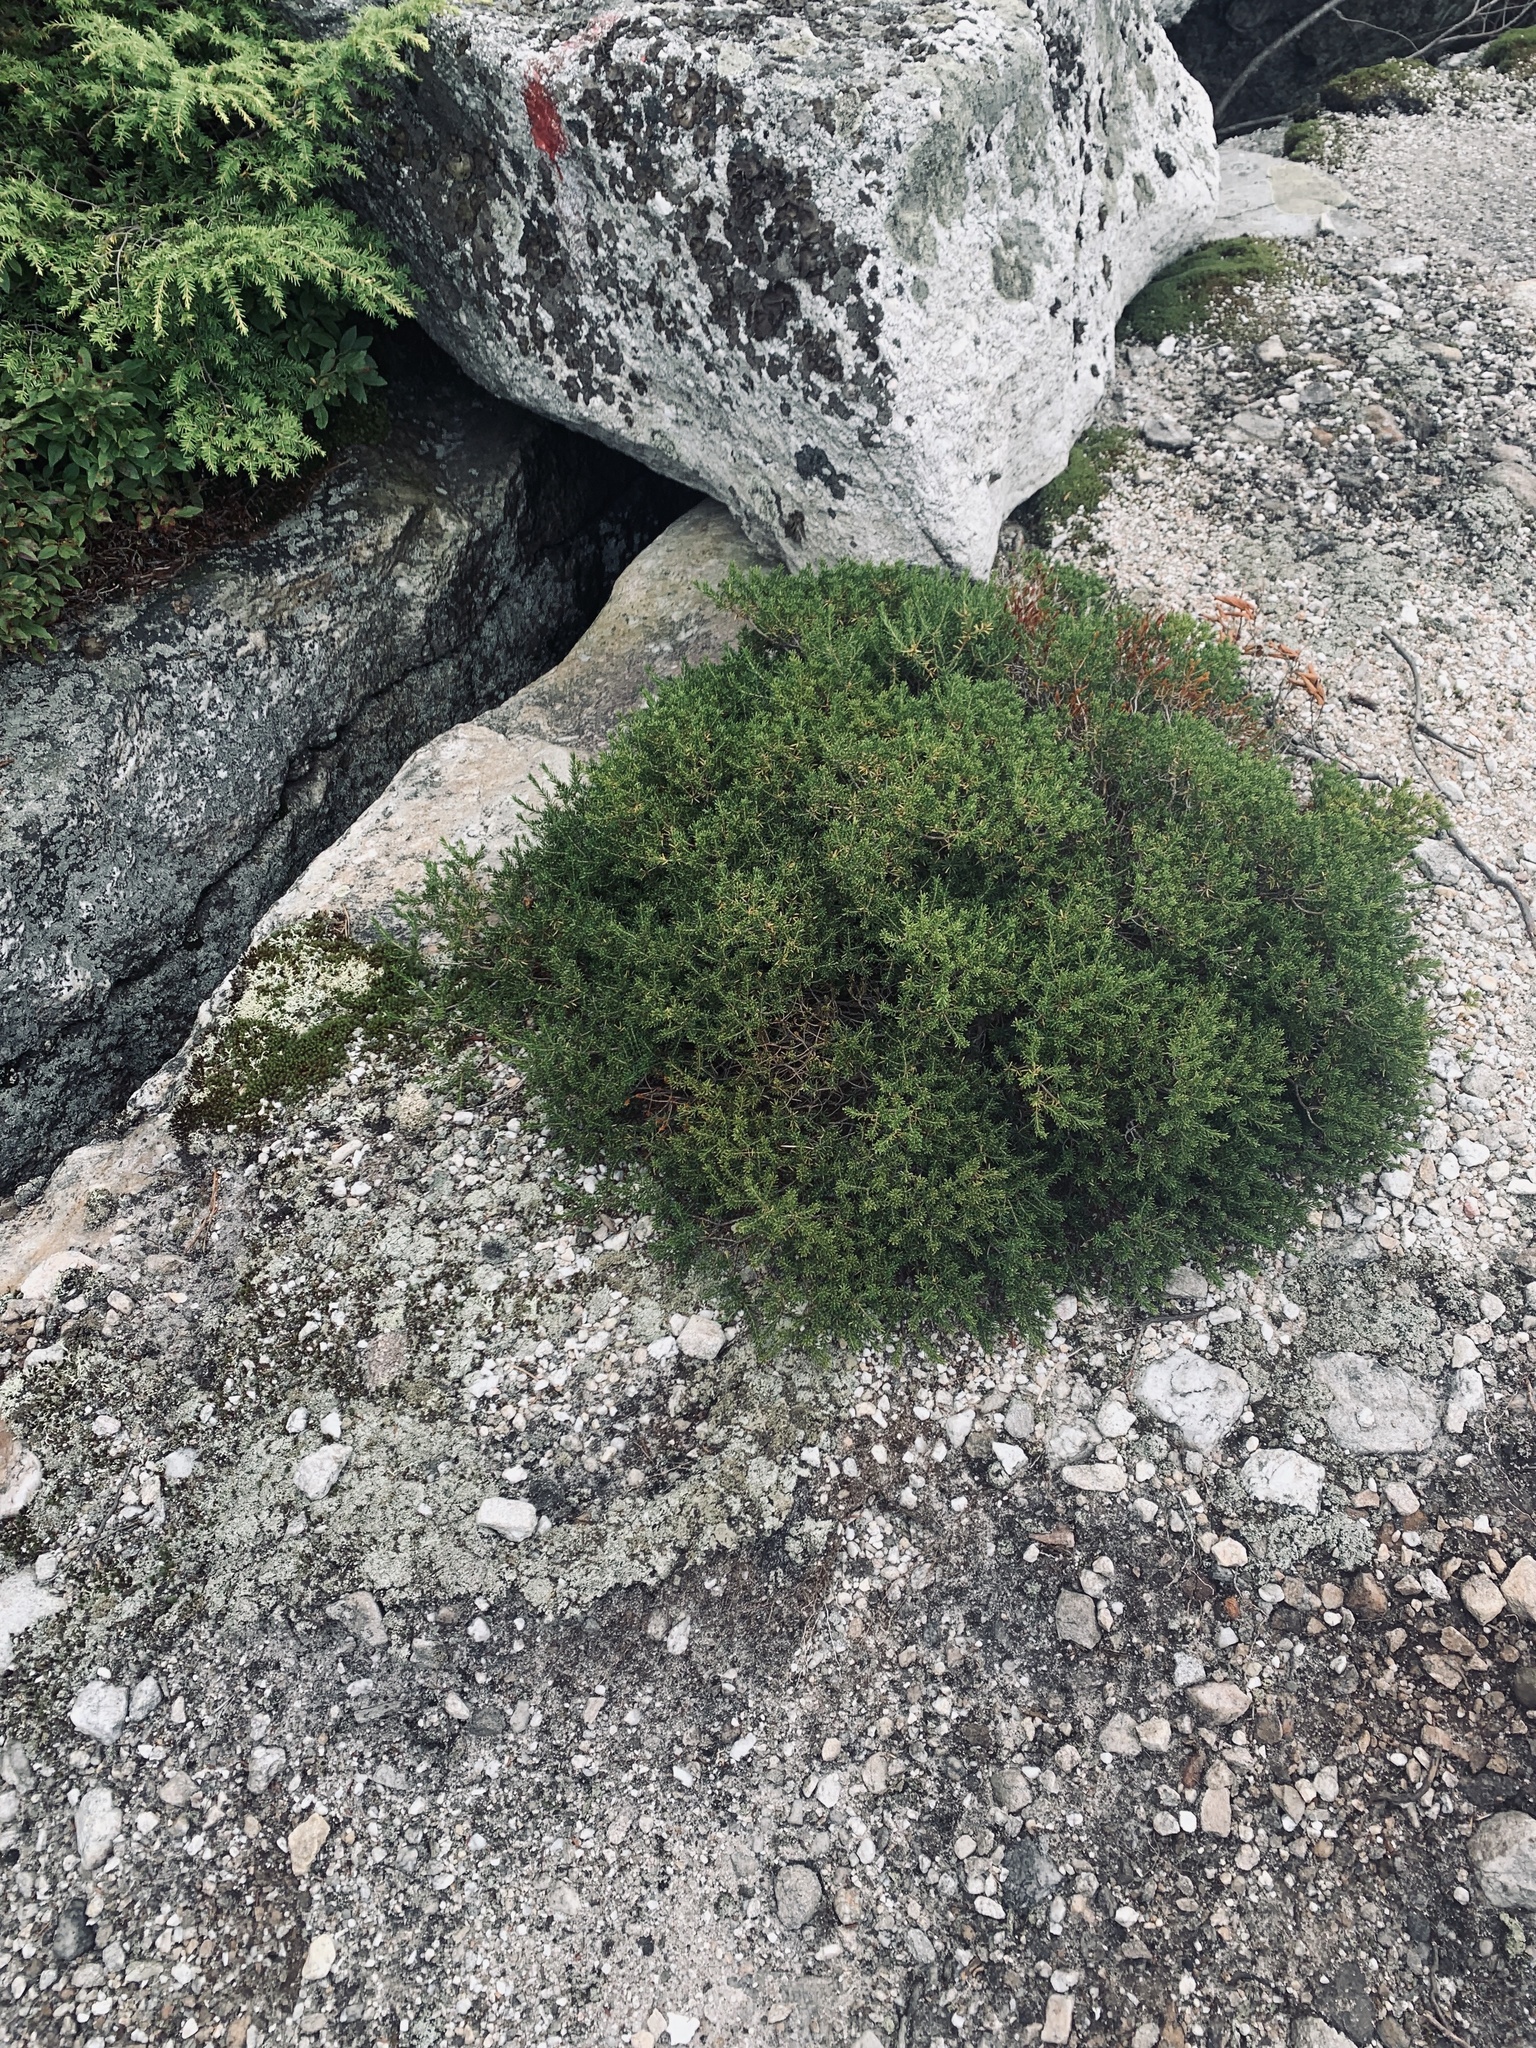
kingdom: Plantae
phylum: Tracheophyta
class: Magnoliopsida
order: Ericales
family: Ericaceae
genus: Corema
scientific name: Corema conradii
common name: Broom-crowberry
